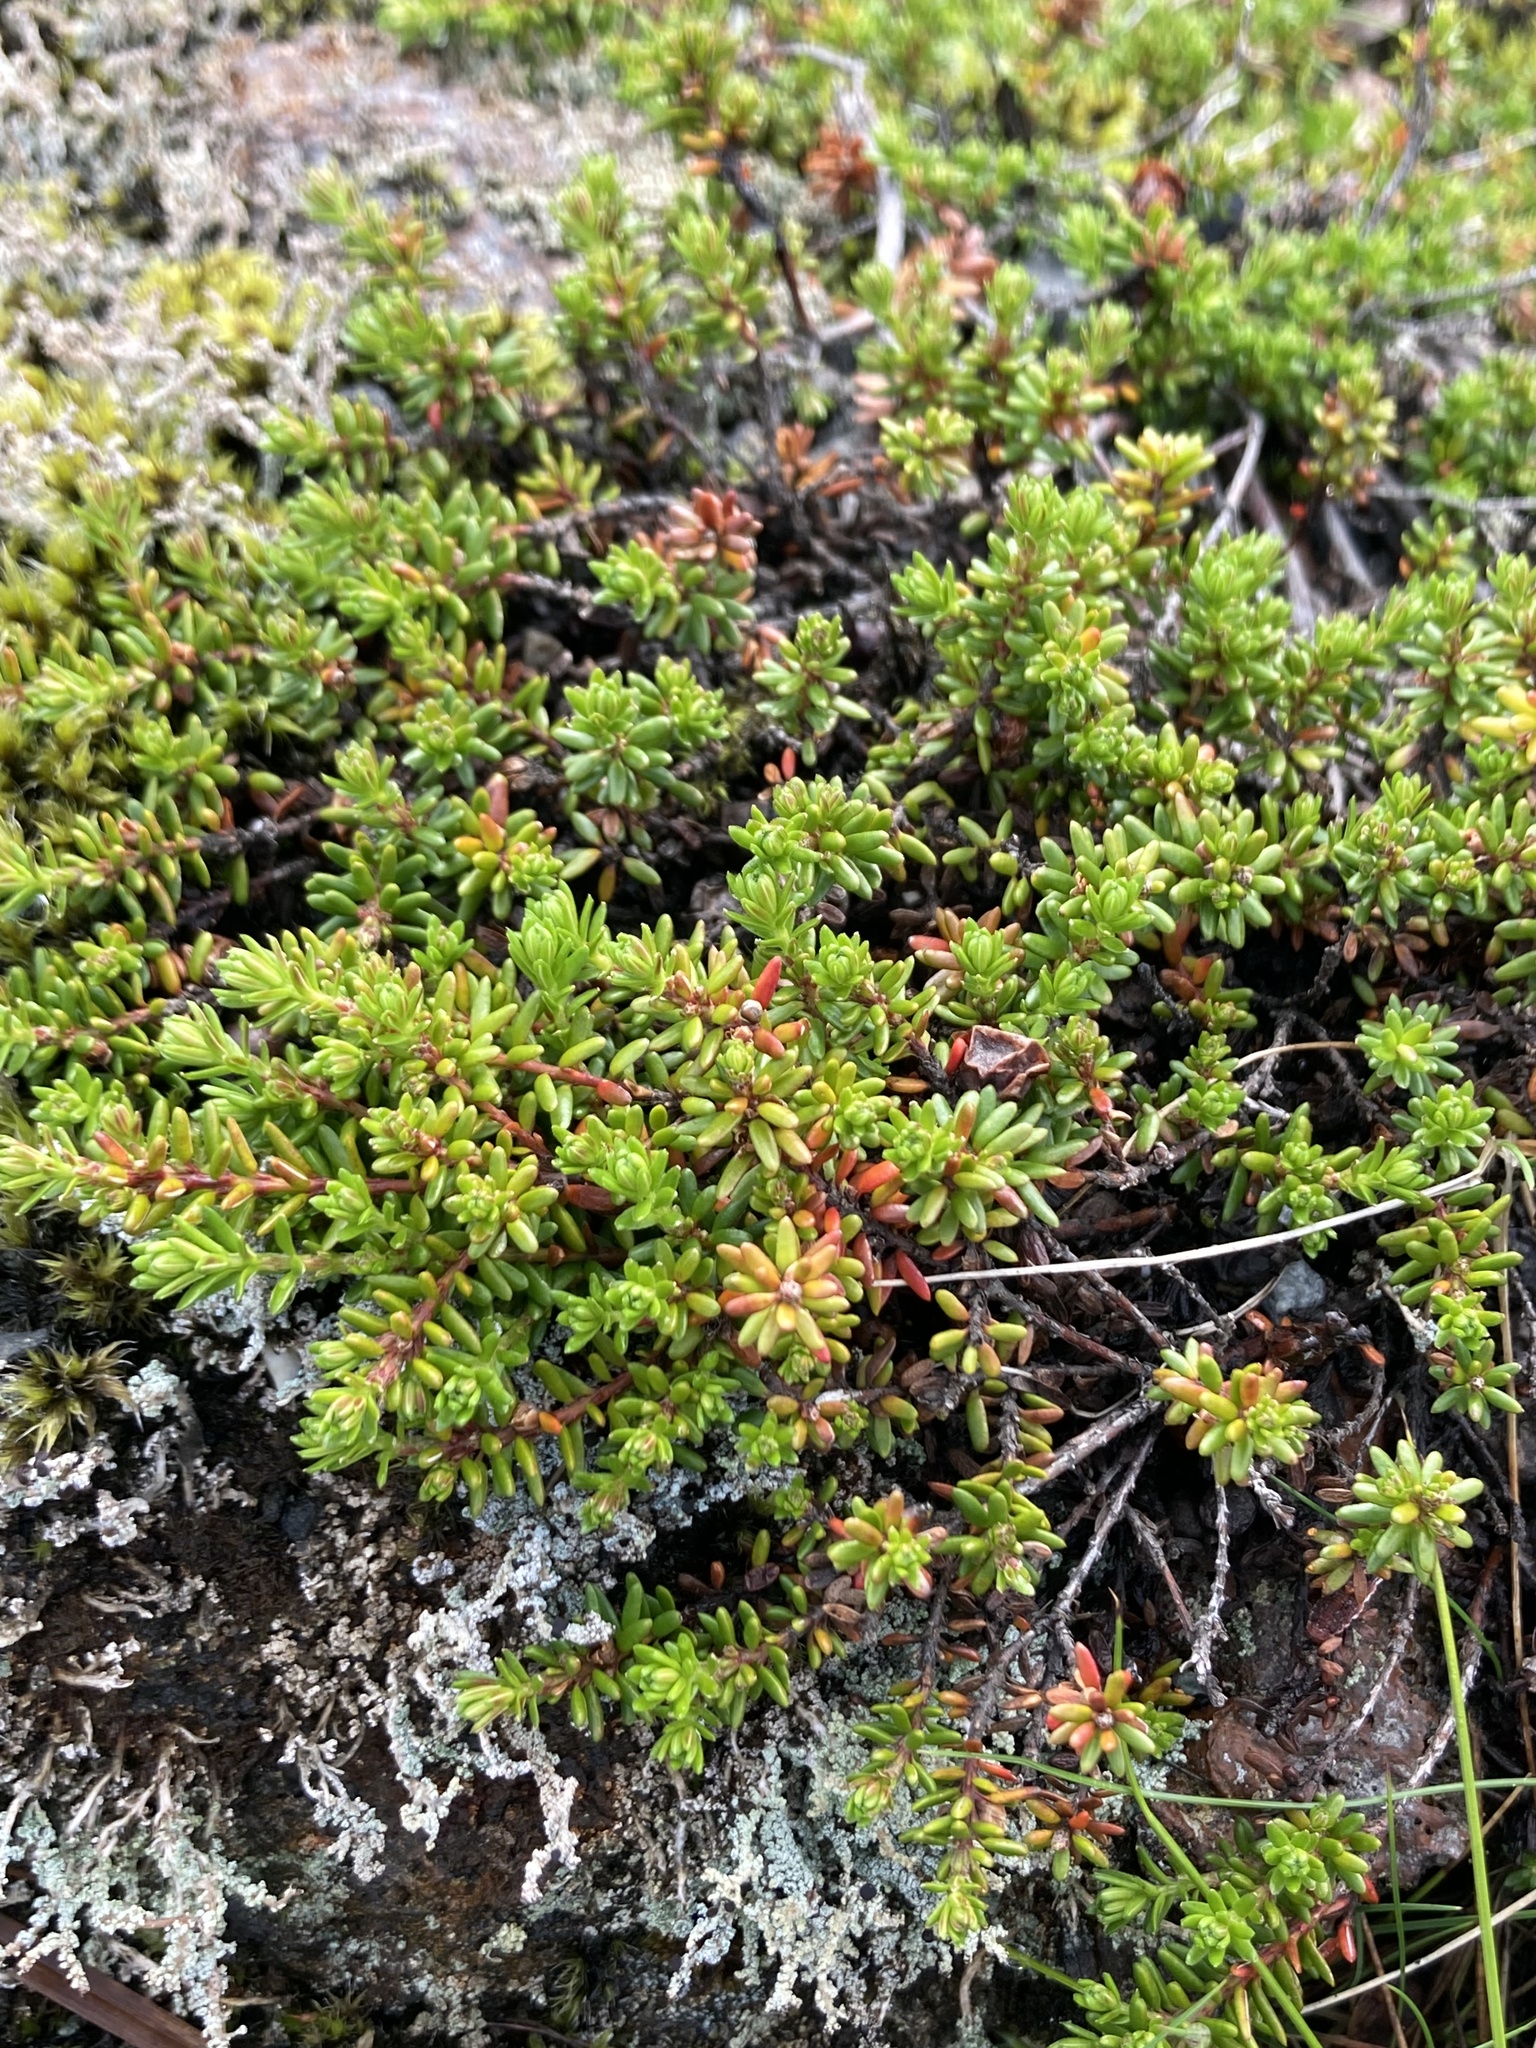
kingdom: Plantae
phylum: Tracheophyta
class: Magnoliopsida
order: Ericales
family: Ericaceae
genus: Empetrum
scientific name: Empetrum nigrum
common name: Black crowberry
